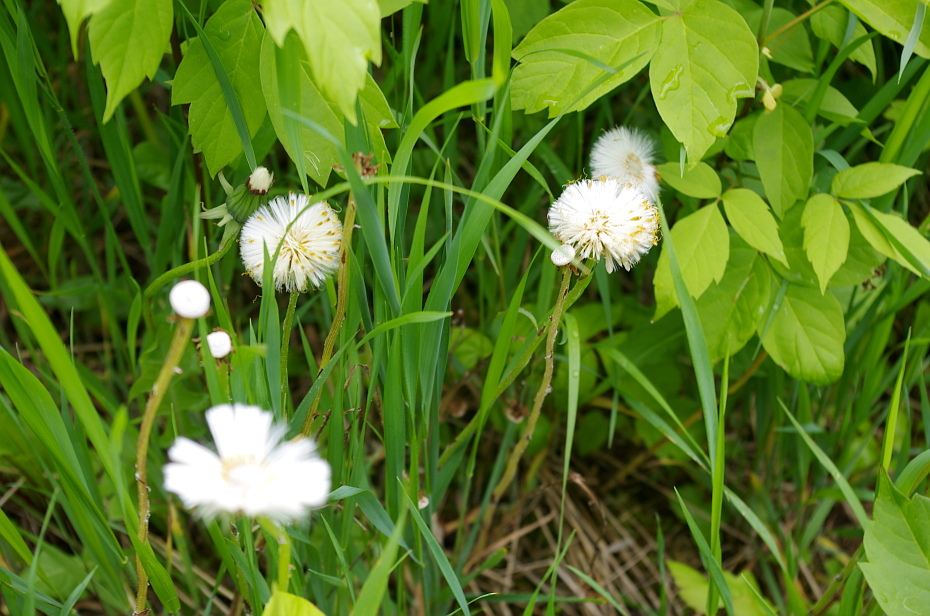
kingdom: Plantae
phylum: Tracheophyta
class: Magnoliopsida
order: Asterales
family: Asteraceae
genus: Tussilago
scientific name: Tussilago farfara
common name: Coltsfoot
